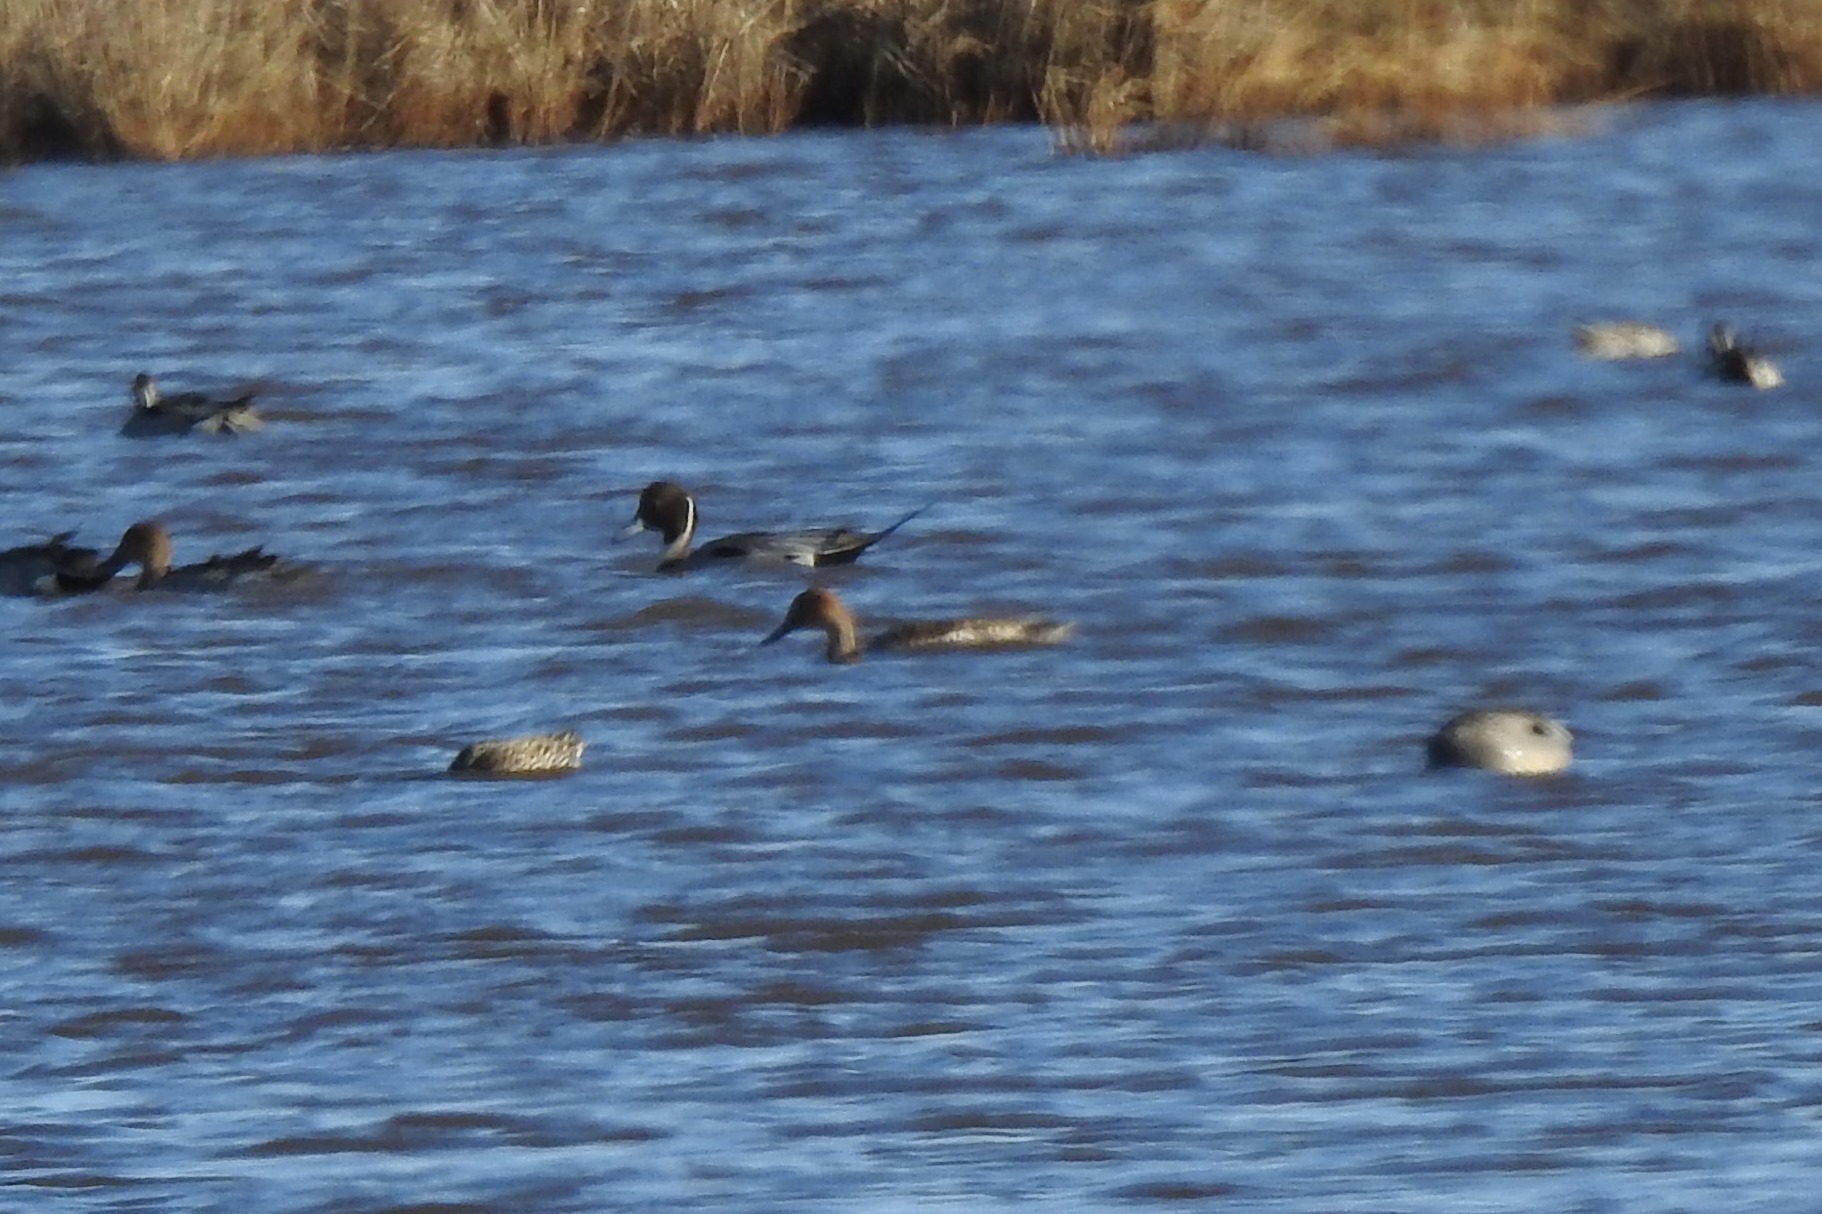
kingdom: Animalia
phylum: Chordata
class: Aves
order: Anseriformes
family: Anatidae
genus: Anas
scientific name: Anas acuta
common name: Northern pintail
